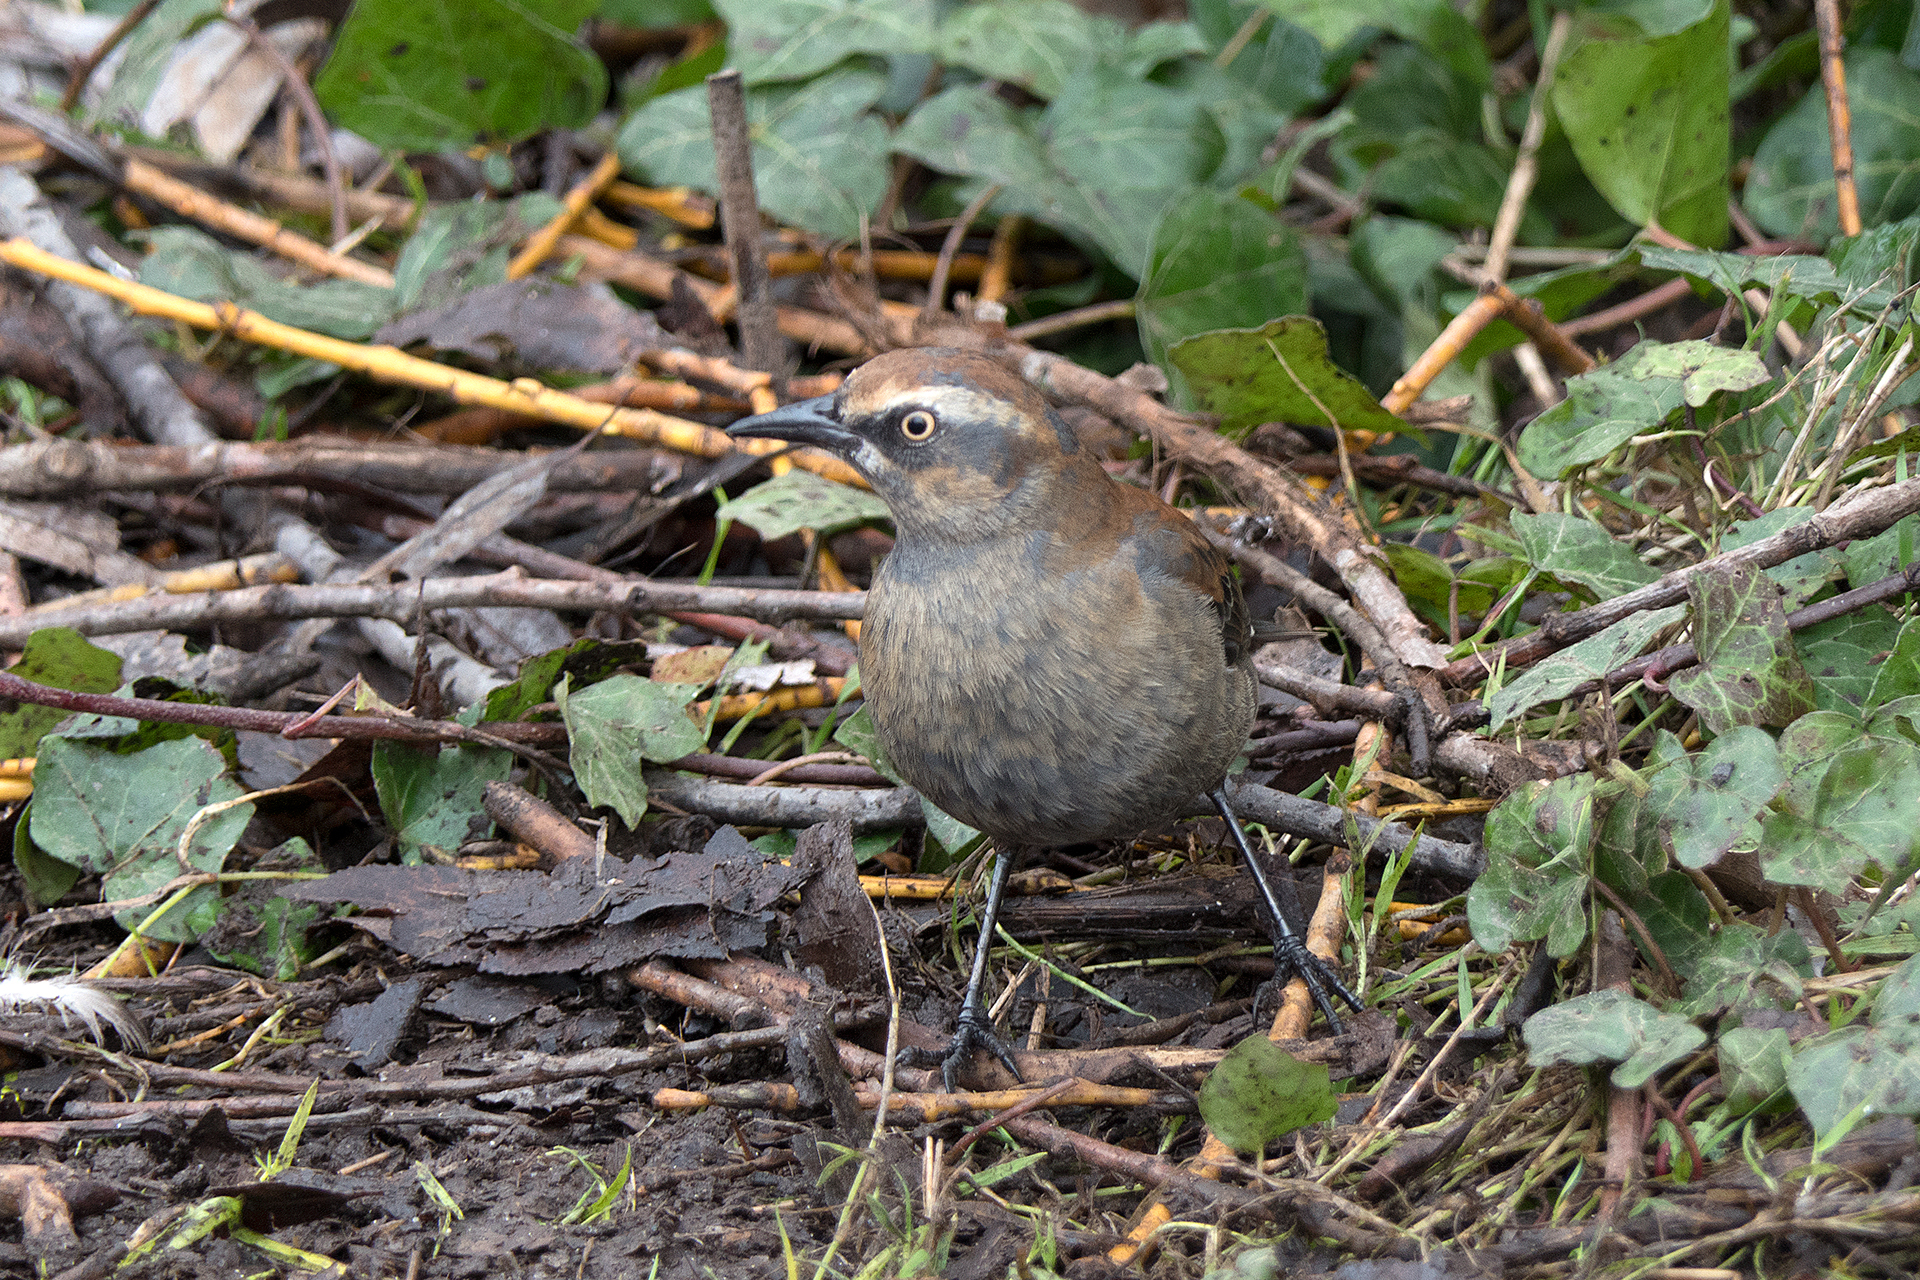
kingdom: Animalia
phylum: Chordata
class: Aves
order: Passeriformes
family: Icteridae
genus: Euphagus
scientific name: Euphagus carolinus
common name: Rusty blackbird
